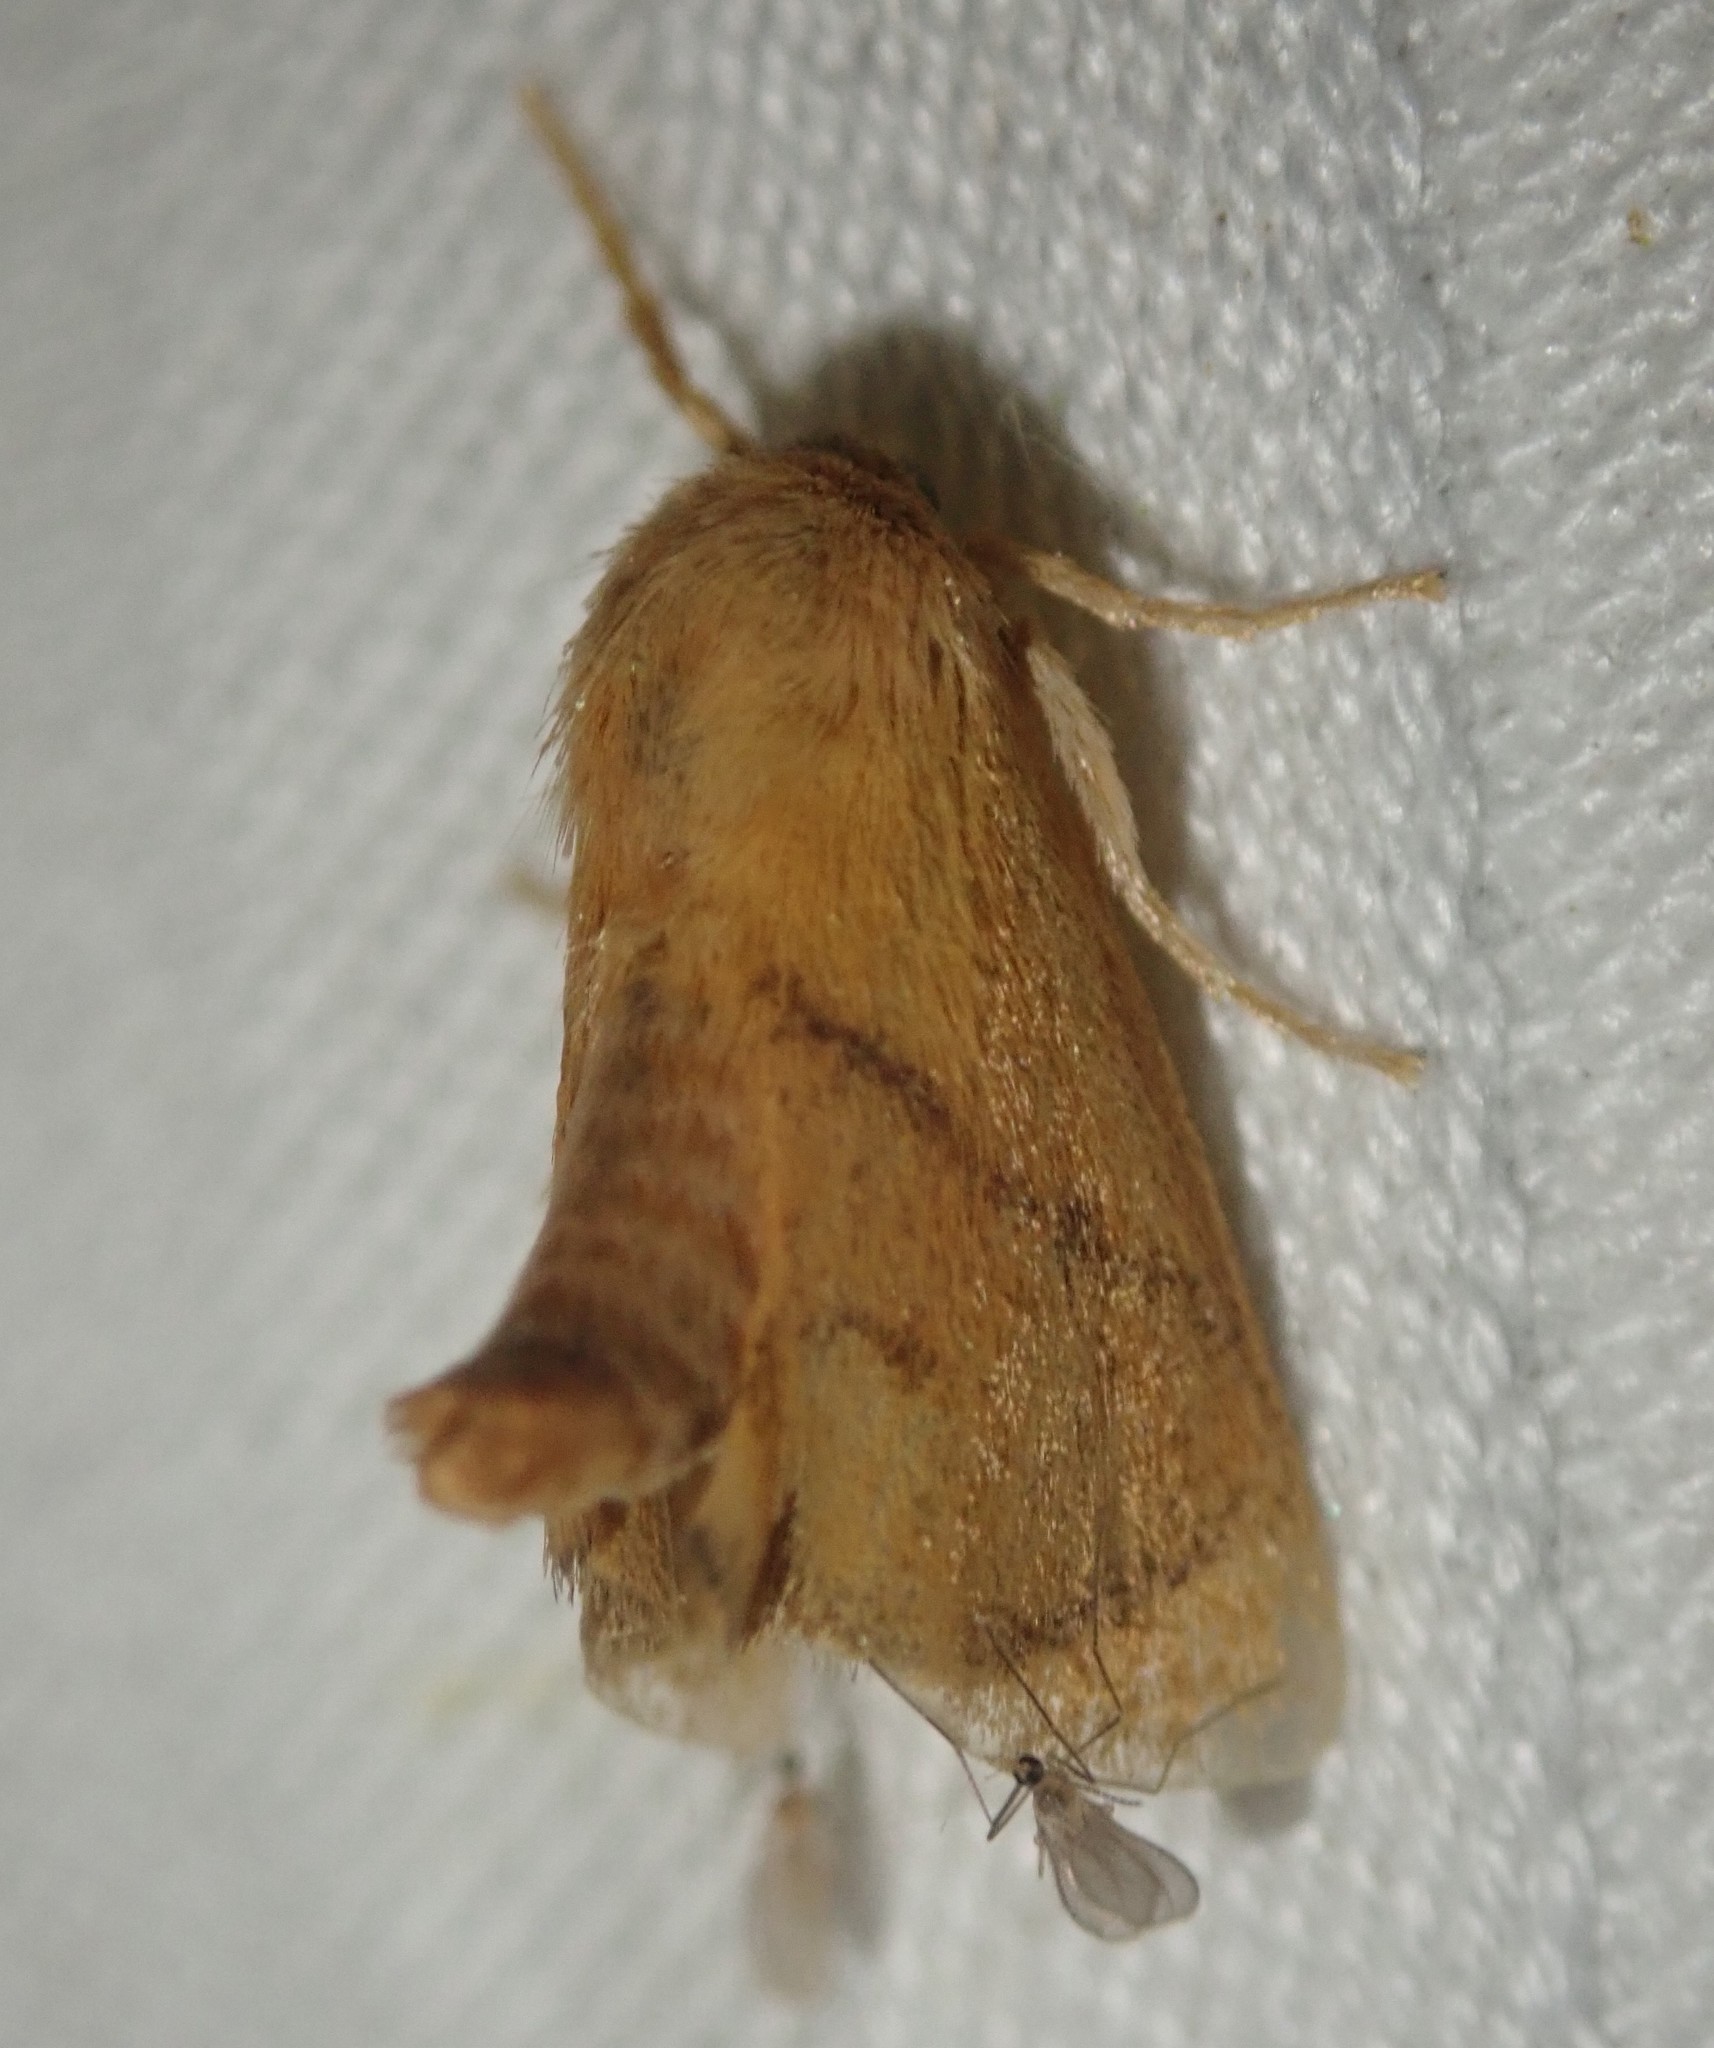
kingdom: Animalia
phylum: Arthropoda
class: Insecta
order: Lepidoptera
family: Limacodidae
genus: Apoda
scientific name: Apoda limacodes
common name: Festoon
